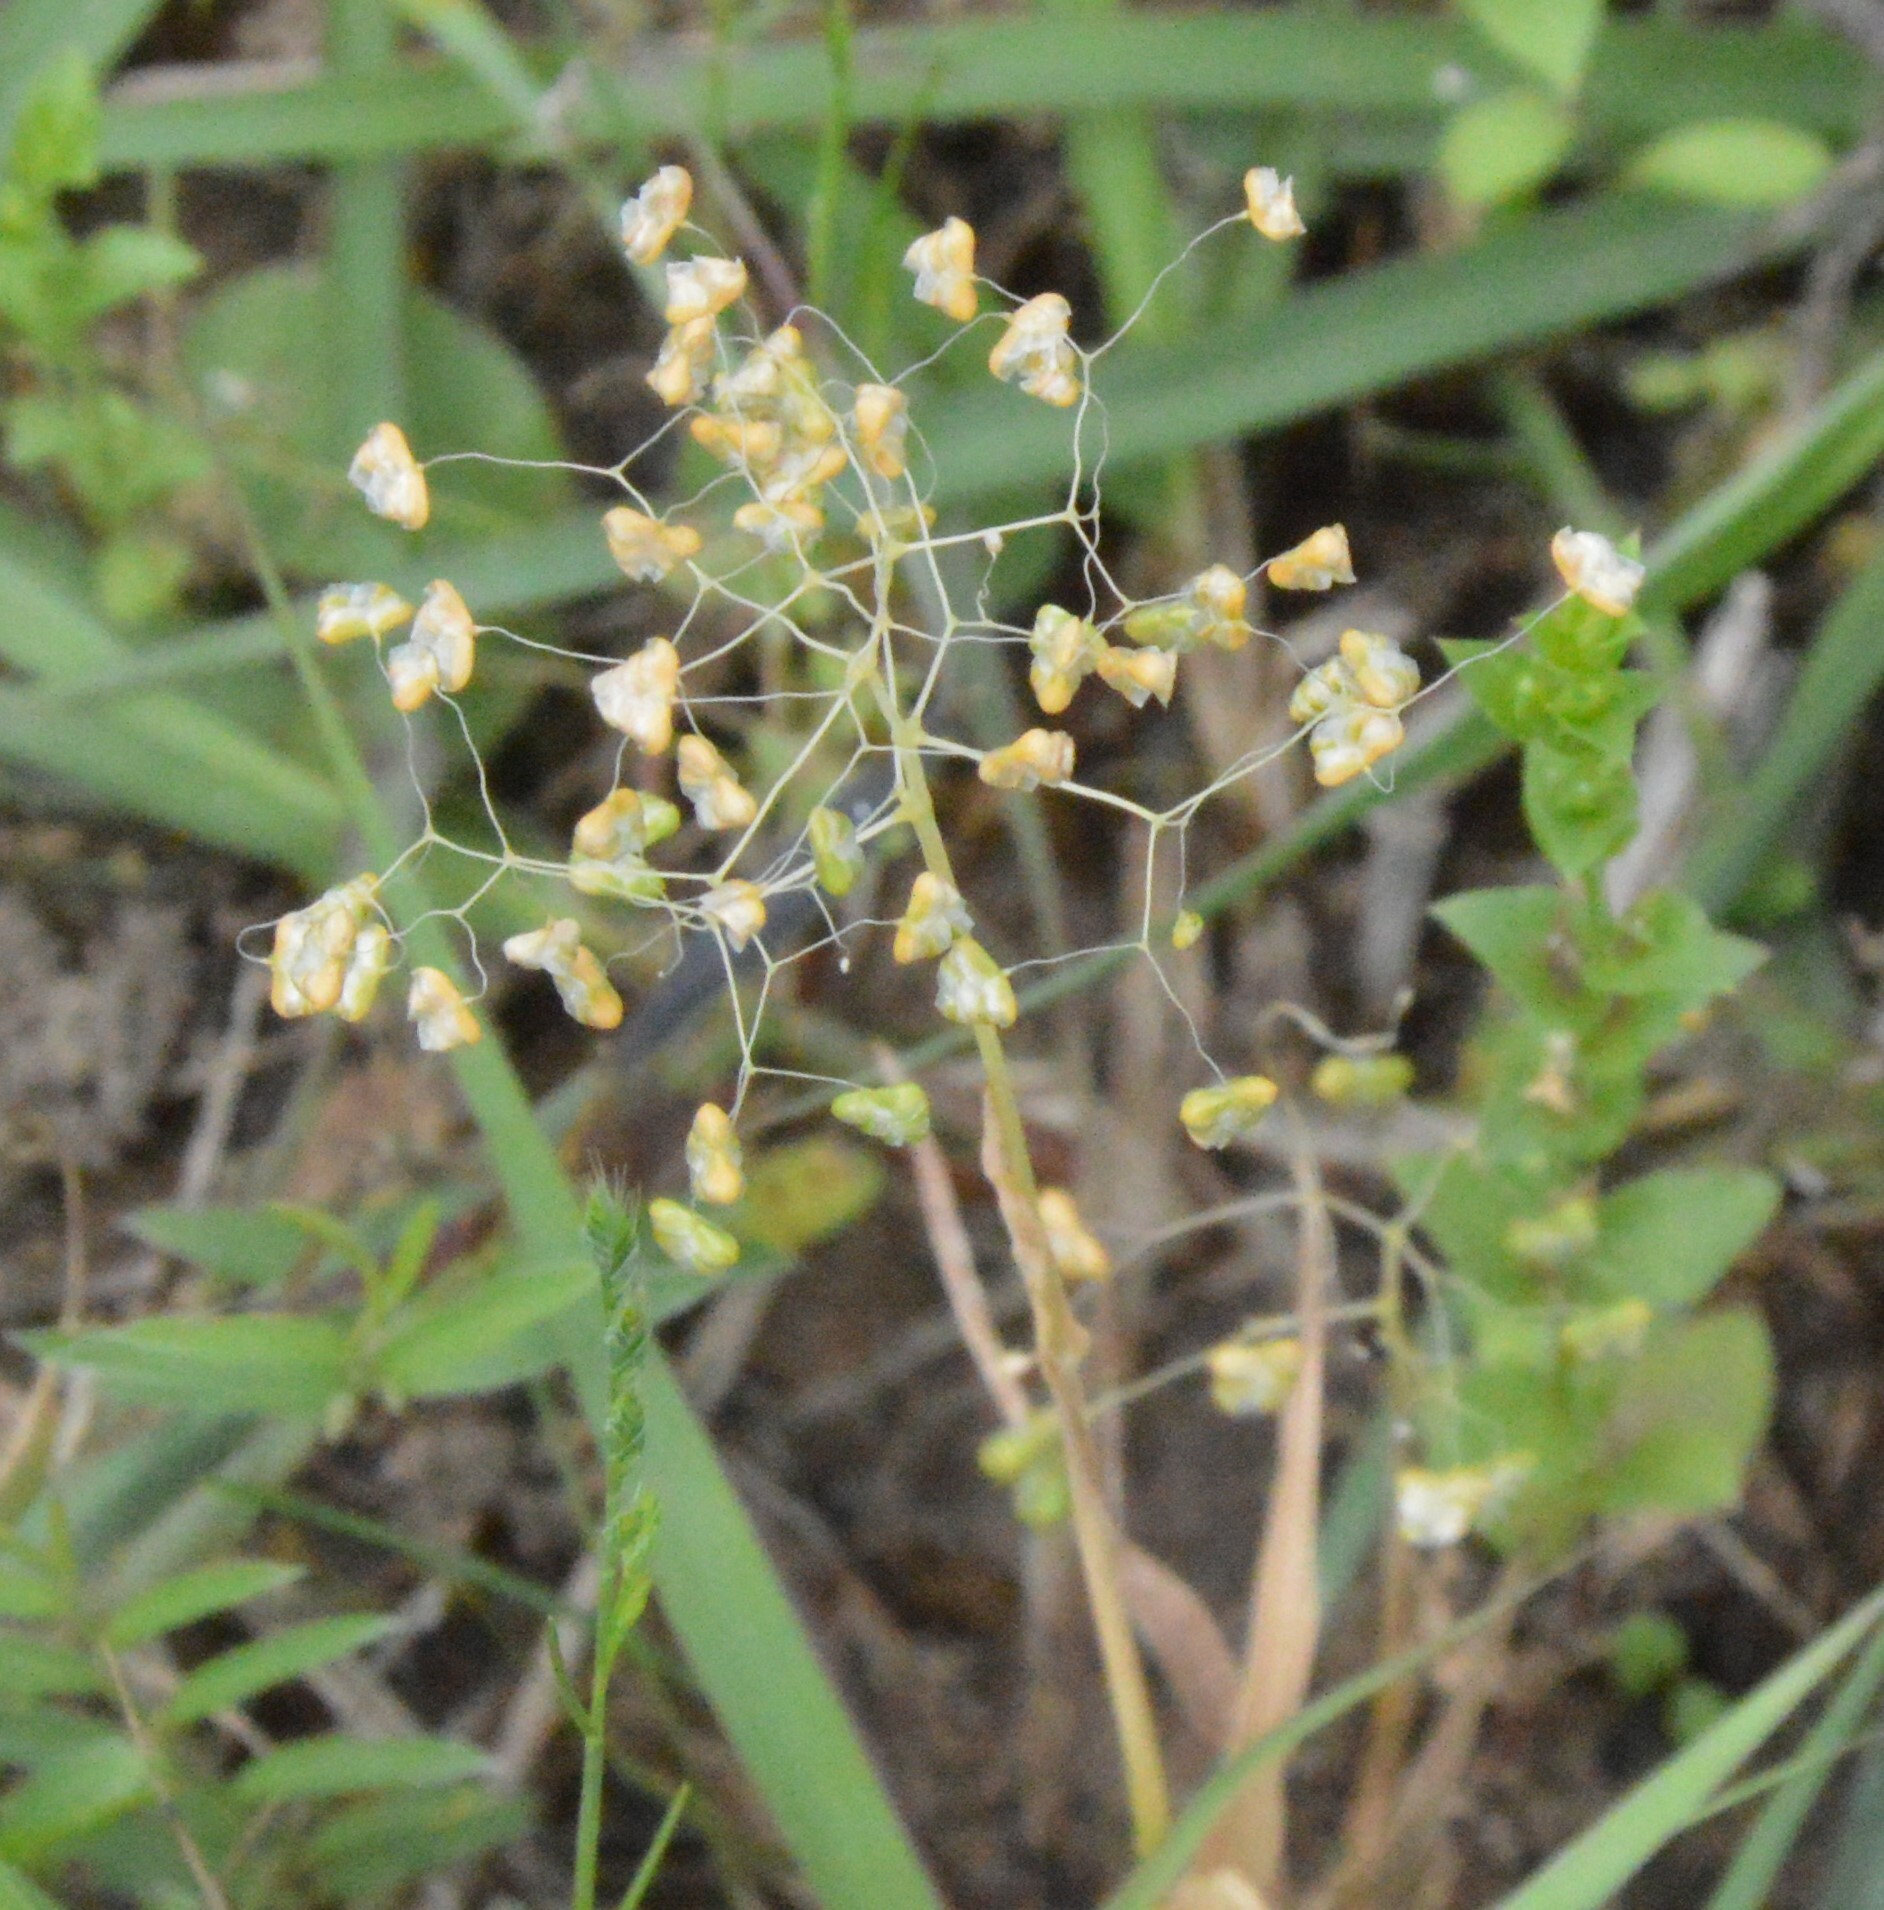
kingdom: Plantae
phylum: Tracheophyta
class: Liliopsida
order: Poales
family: Poaceae
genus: Briza
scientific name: Briza minor
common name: Lesser quaking-grass
